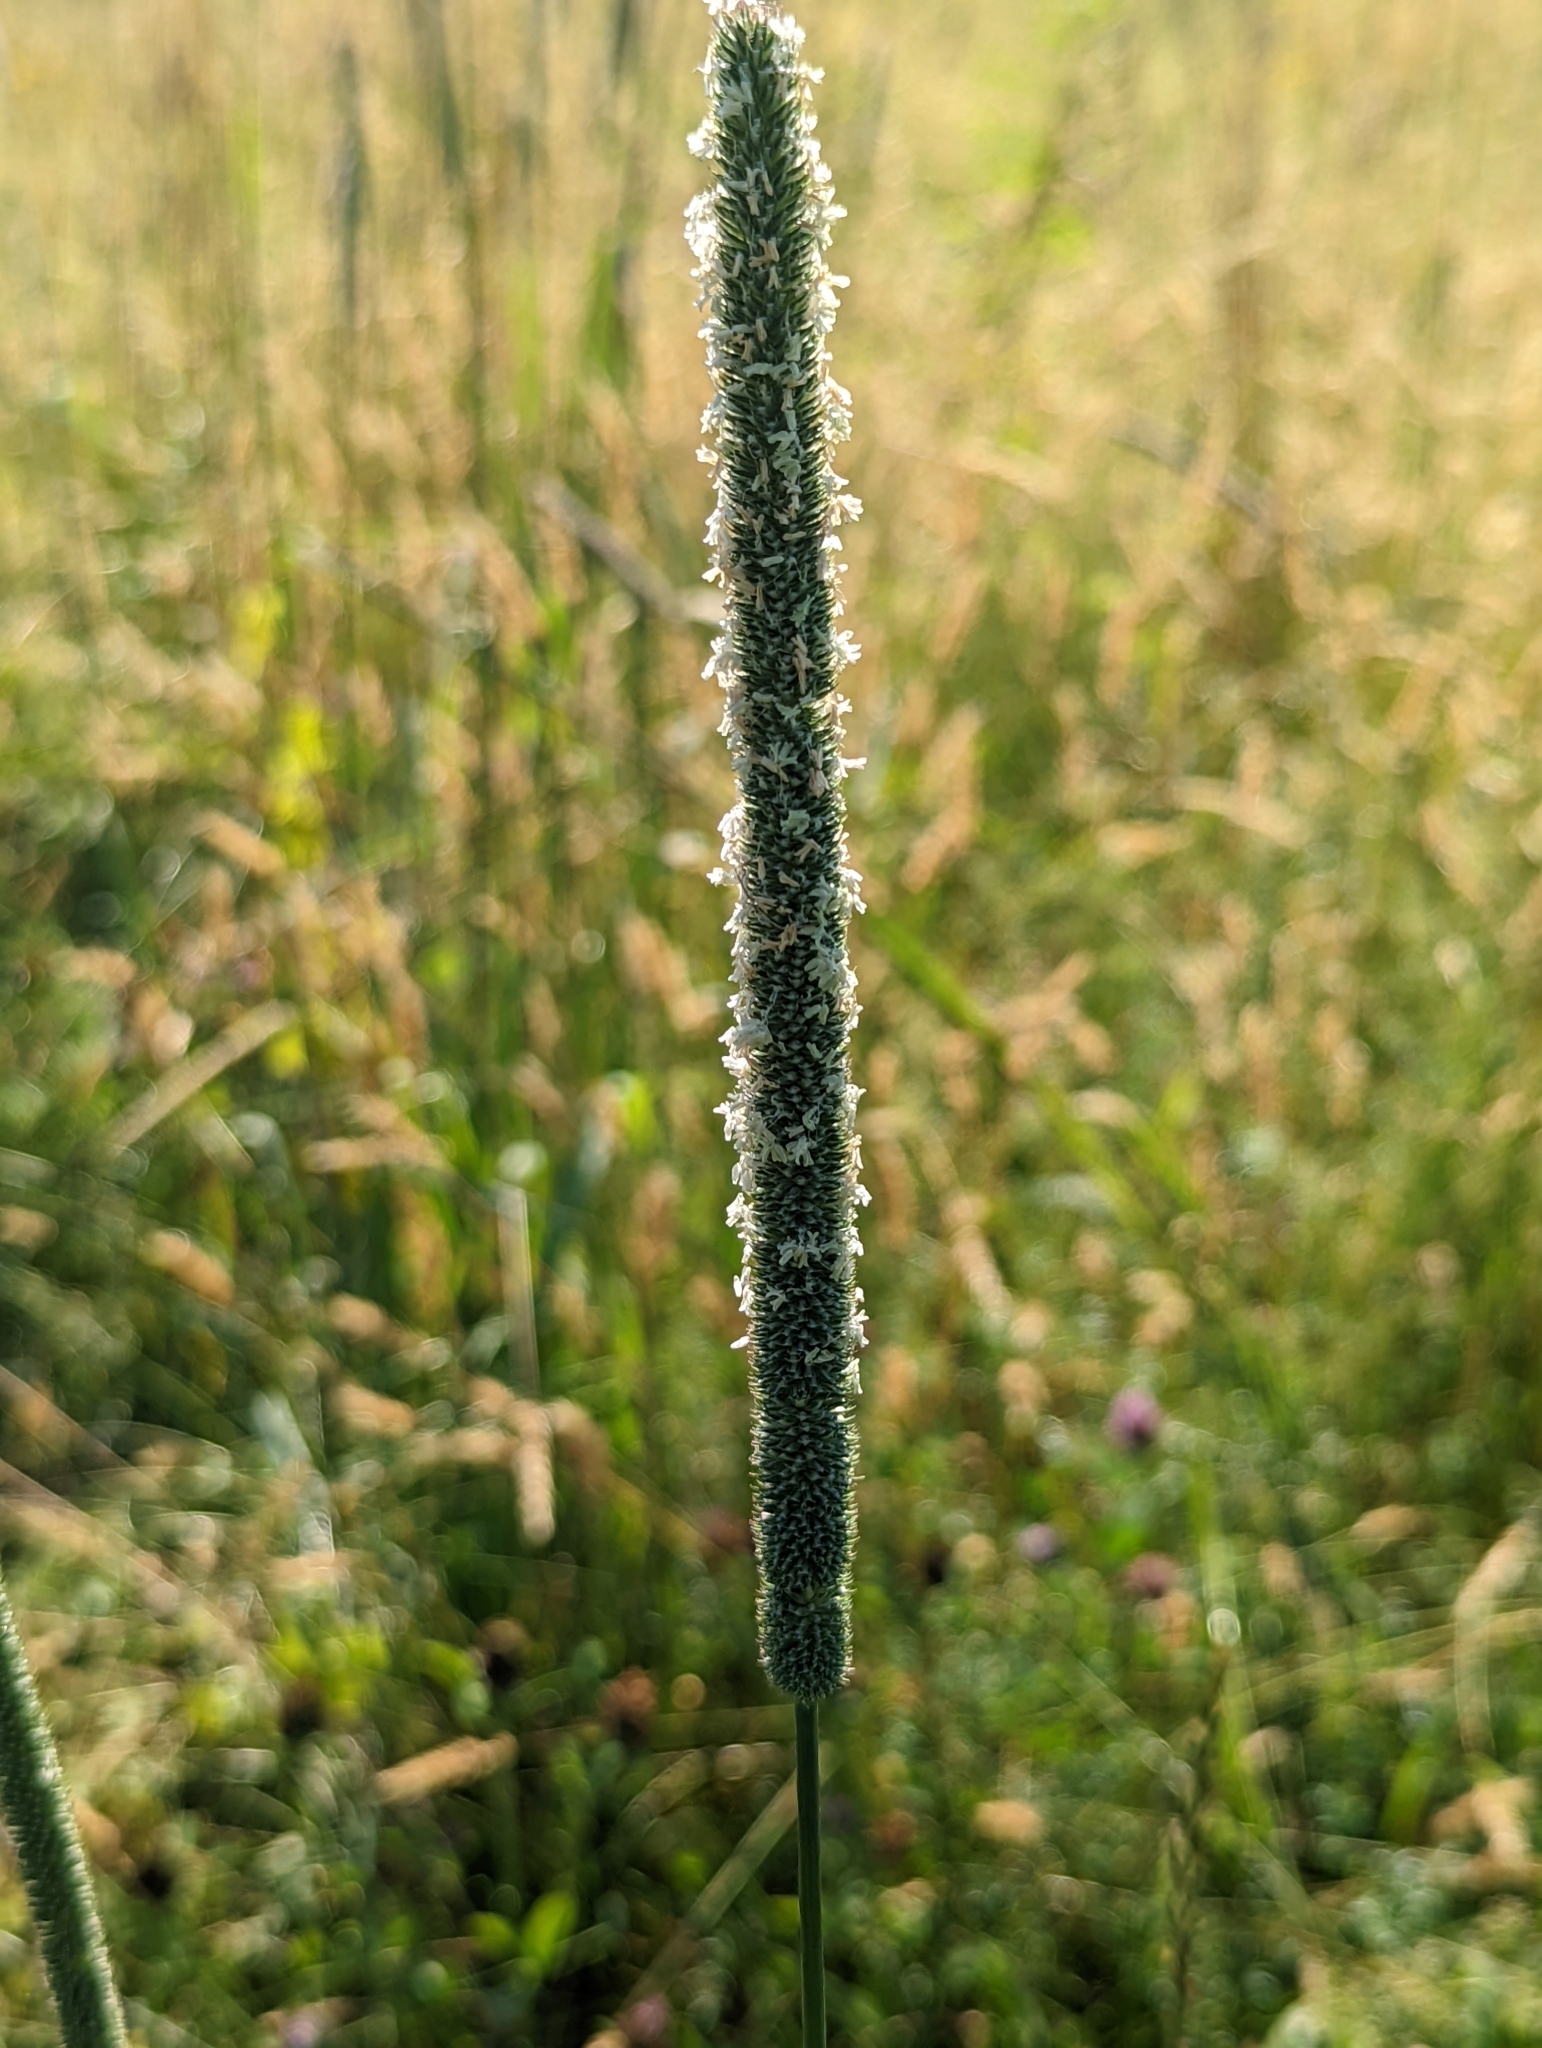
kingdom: Plantae
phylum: Tracheophyta
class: Liliopsida
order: Poales
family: Poaceae
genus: Phleum
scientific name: Phleum pratense
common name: Timothy grass
